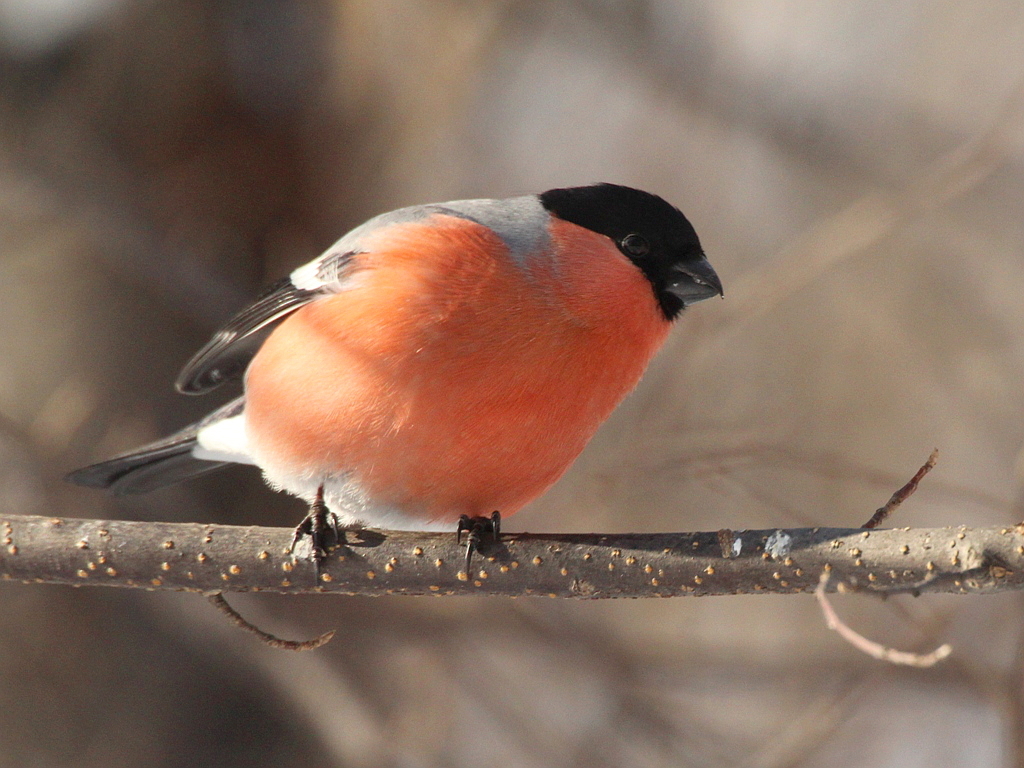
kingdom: Animalia
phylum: Chordata
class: Aves
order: Passeriformes
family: Fringillidae
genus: Pyrrhula
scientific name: Pyrrhula pyrrhula
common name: Eurasian bullfinch
